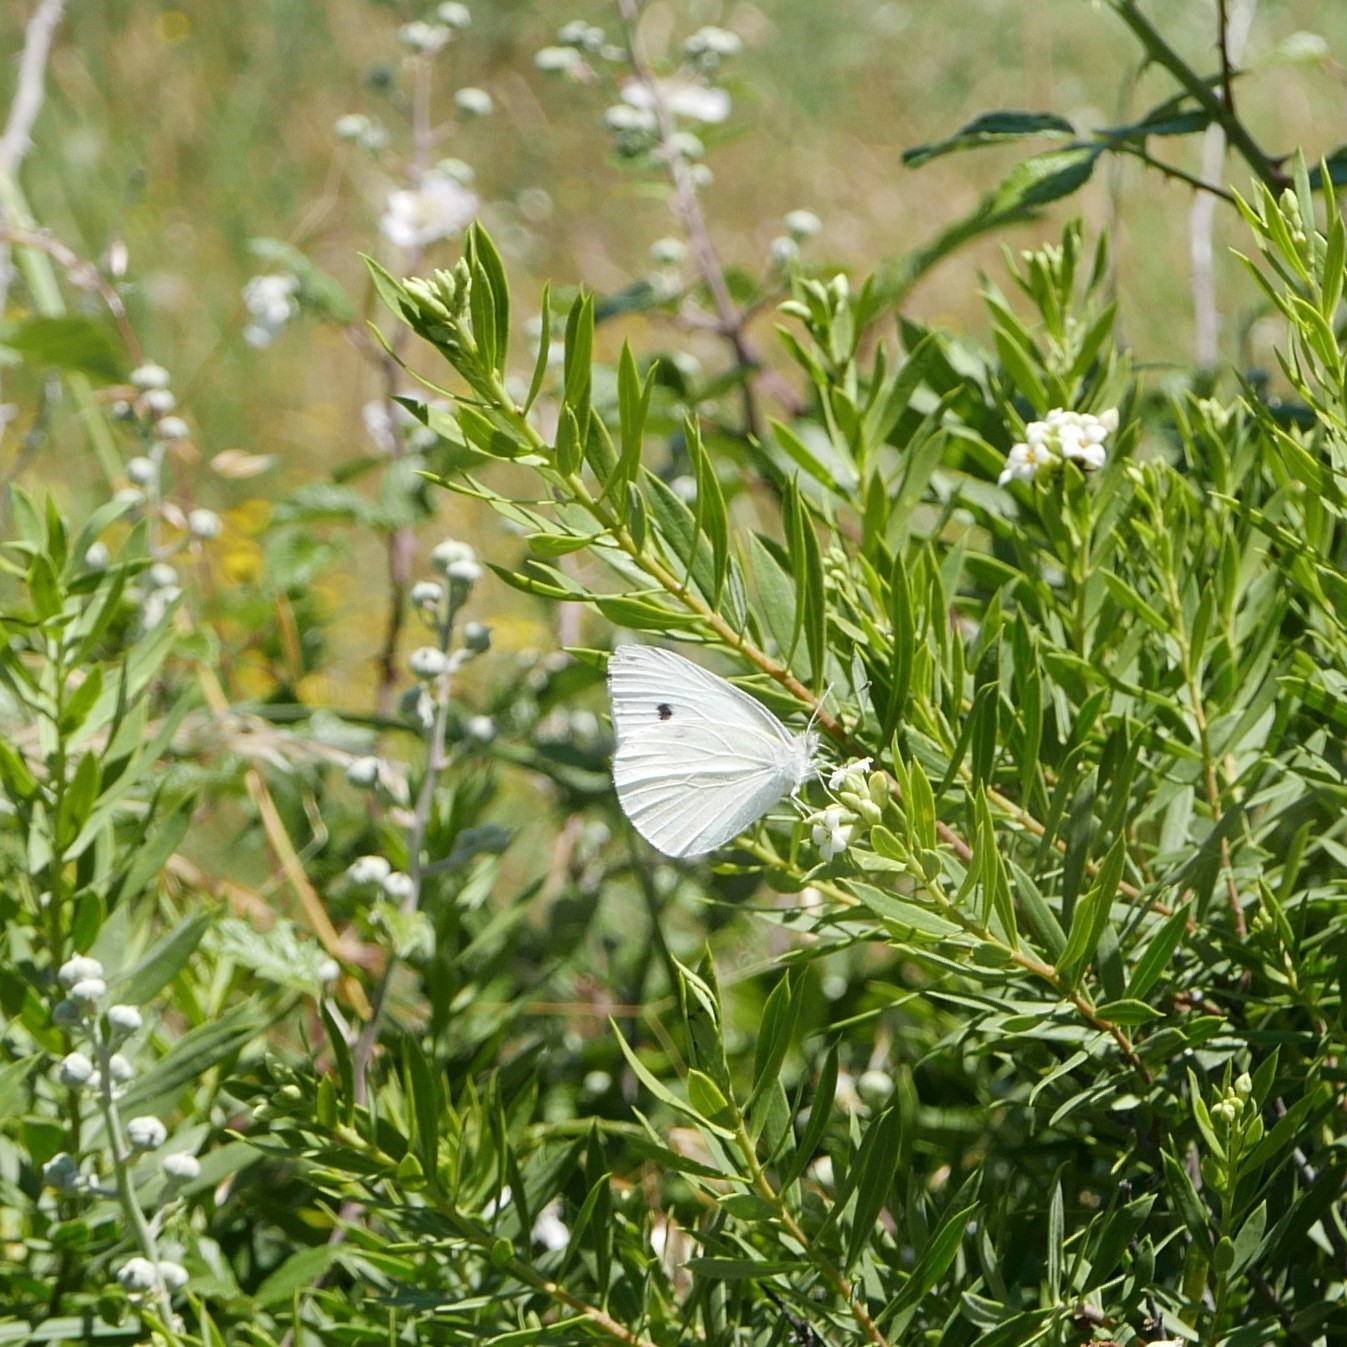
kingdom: Animalia
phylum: Arthropoda
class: Insecta
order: Lepidoptera
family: Pieridae
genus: Pieris
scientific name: Pieris rapae
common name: Small white
